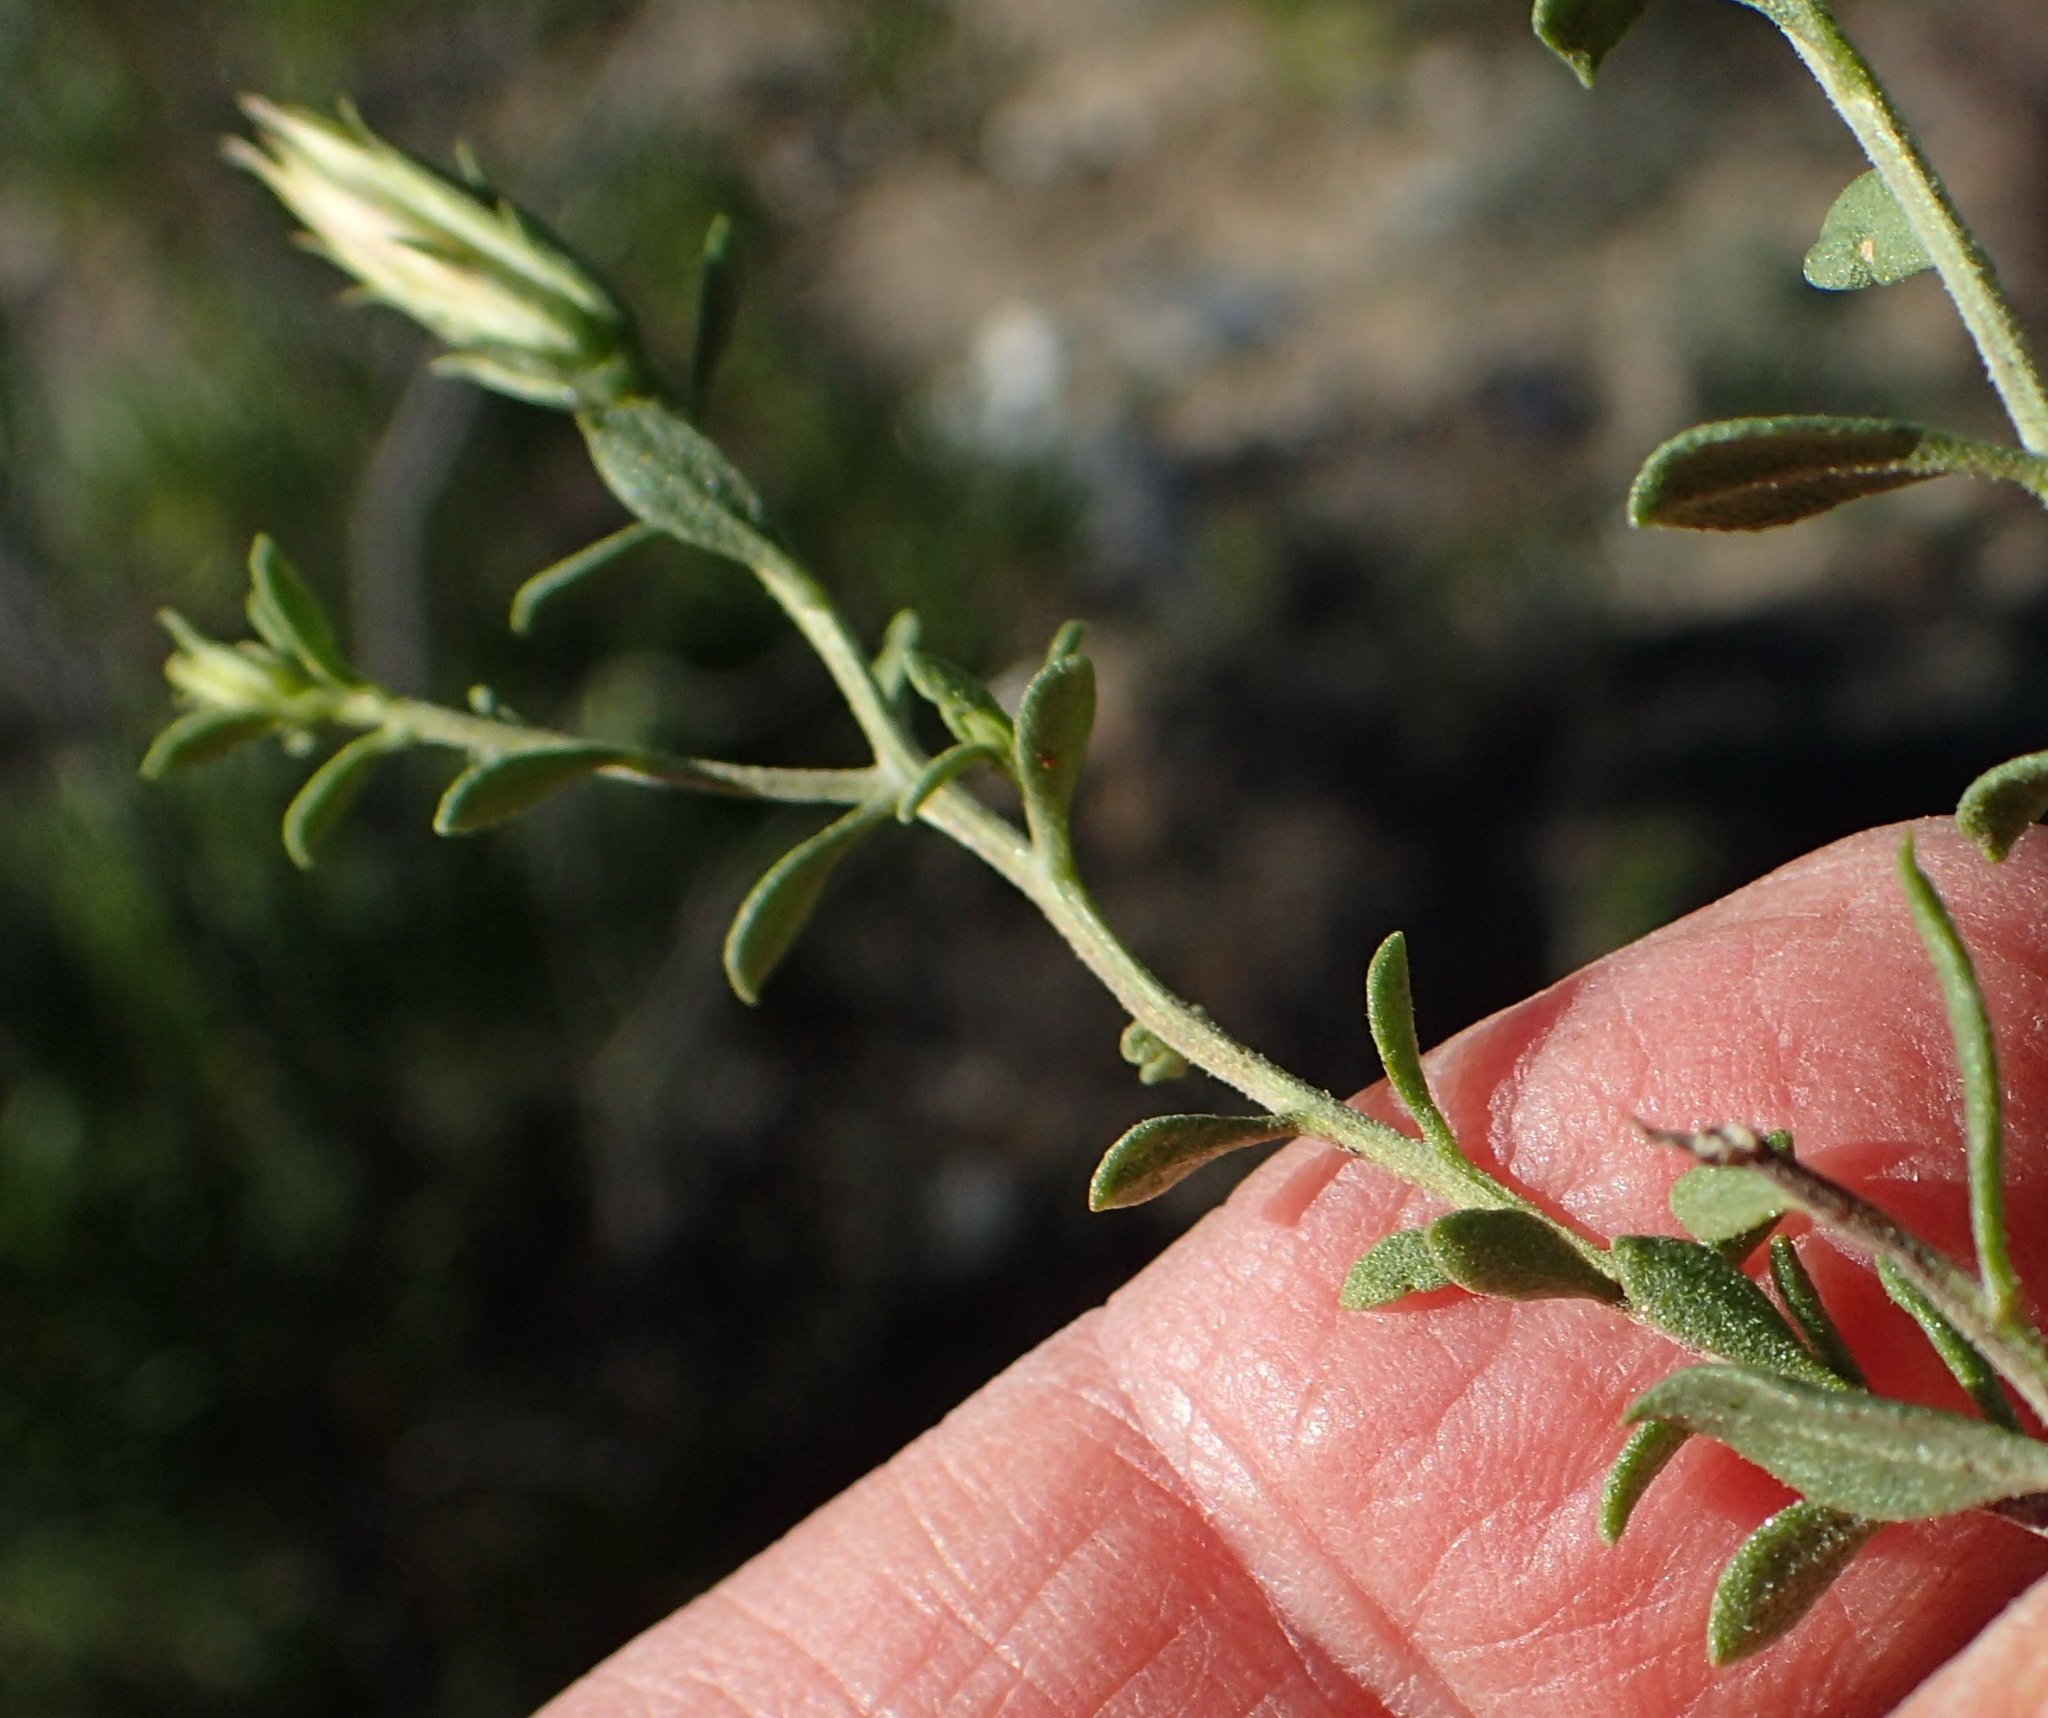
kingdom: Plantae
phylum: Tracheophyta
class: Magnoliopsida
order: Asterales
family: Asteraceae
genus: Pegolettia
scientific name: Pegolettia retrofracta
